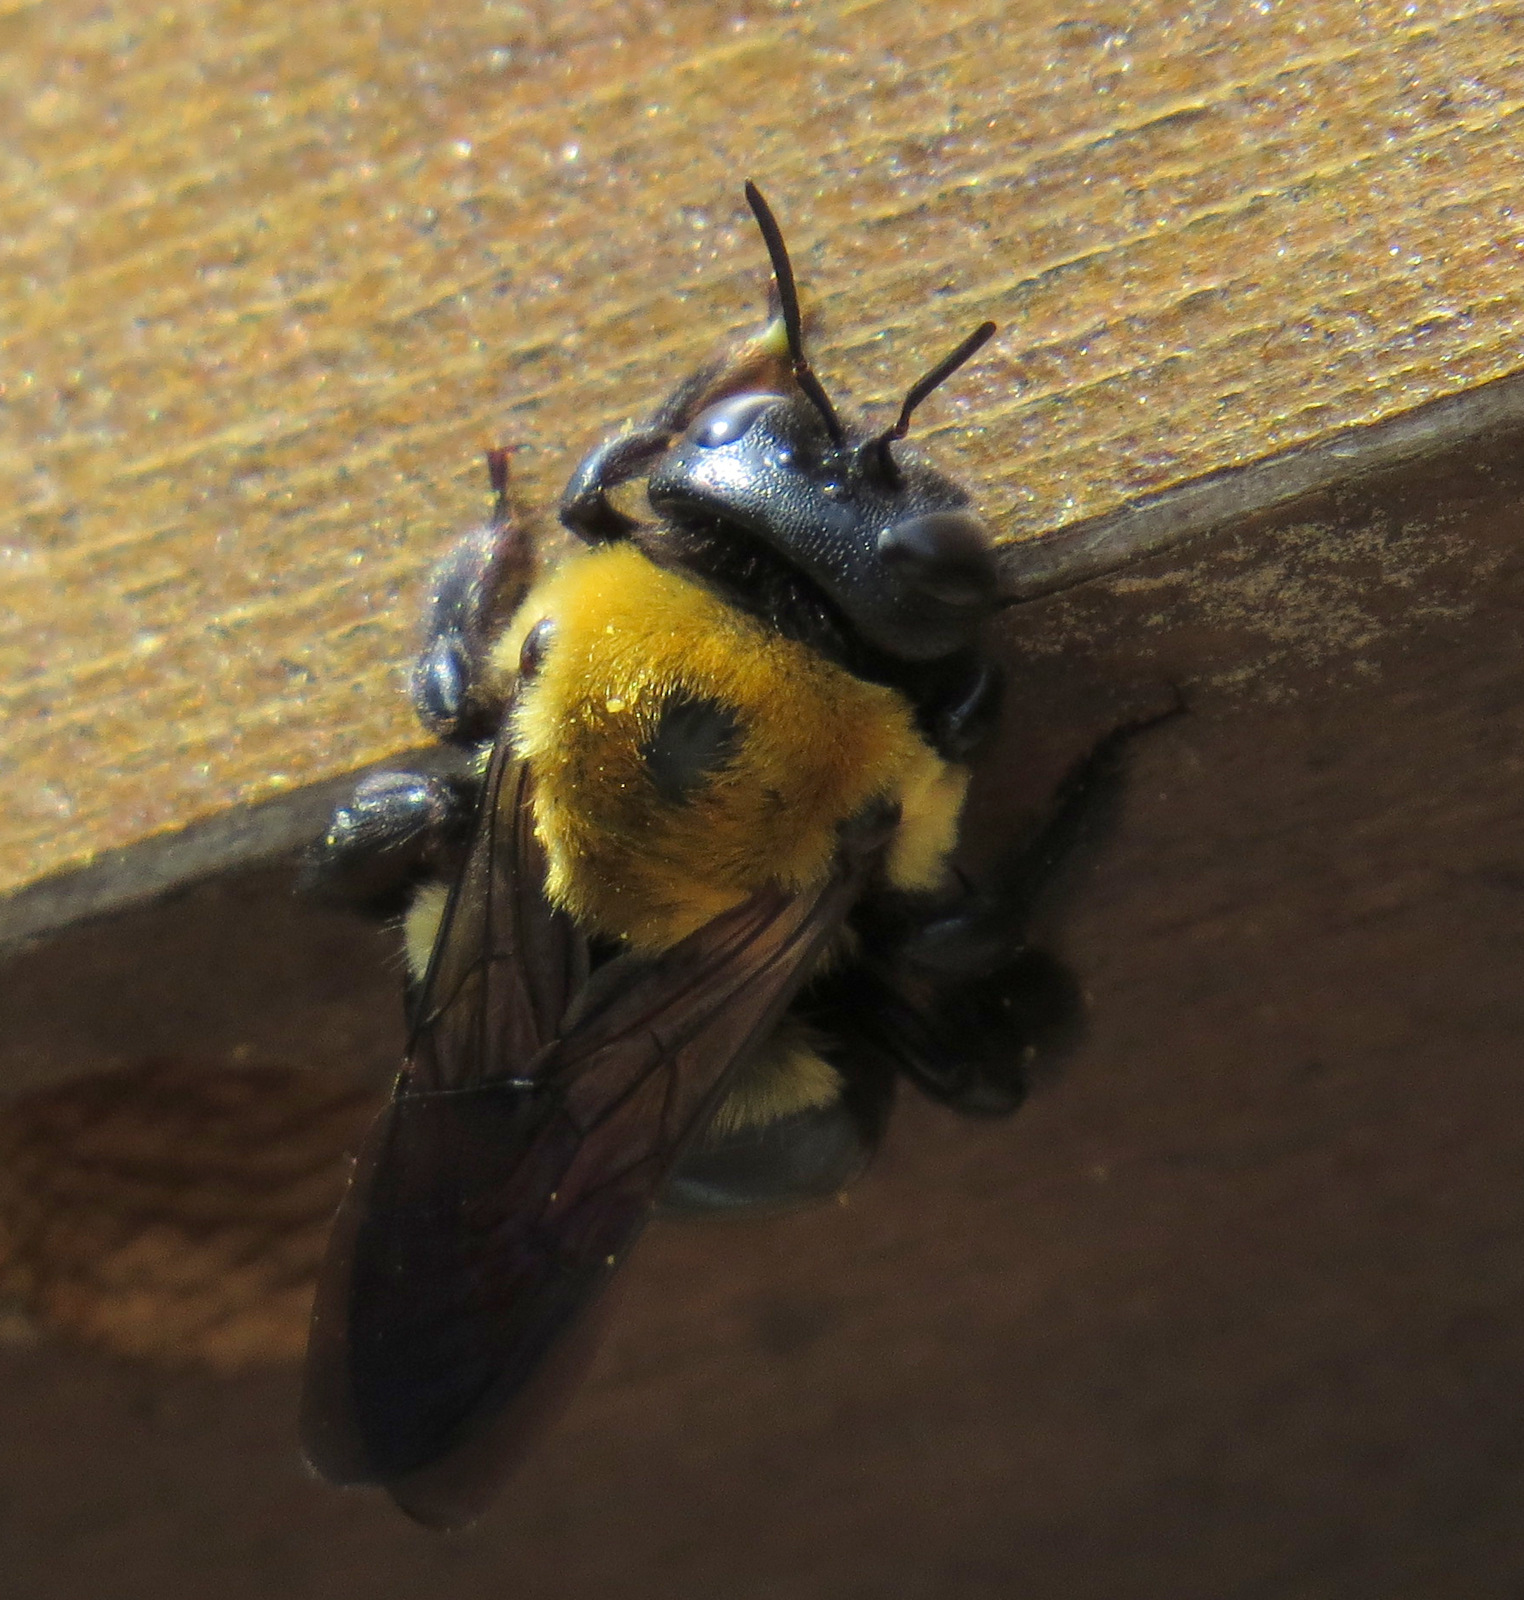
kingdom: Animalia
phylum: Arthropoda
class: Insecta
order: Hymenoptera
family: Apidae
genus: Xylocopa
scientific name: Xylocopa virginica
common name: Carpenter bee
